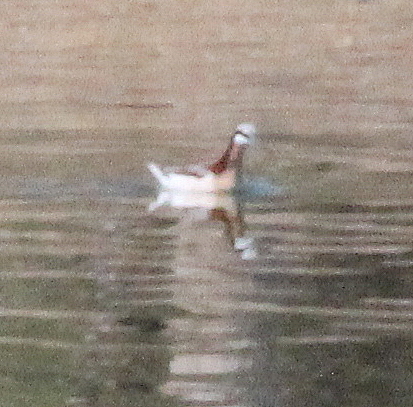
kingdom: Animalia
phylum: Chordata
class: Aves
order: Charadriiformes
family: Scolopacidae
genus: Phalaropus
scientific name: Phalaropus tricolor
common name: Wilson's phalarope
